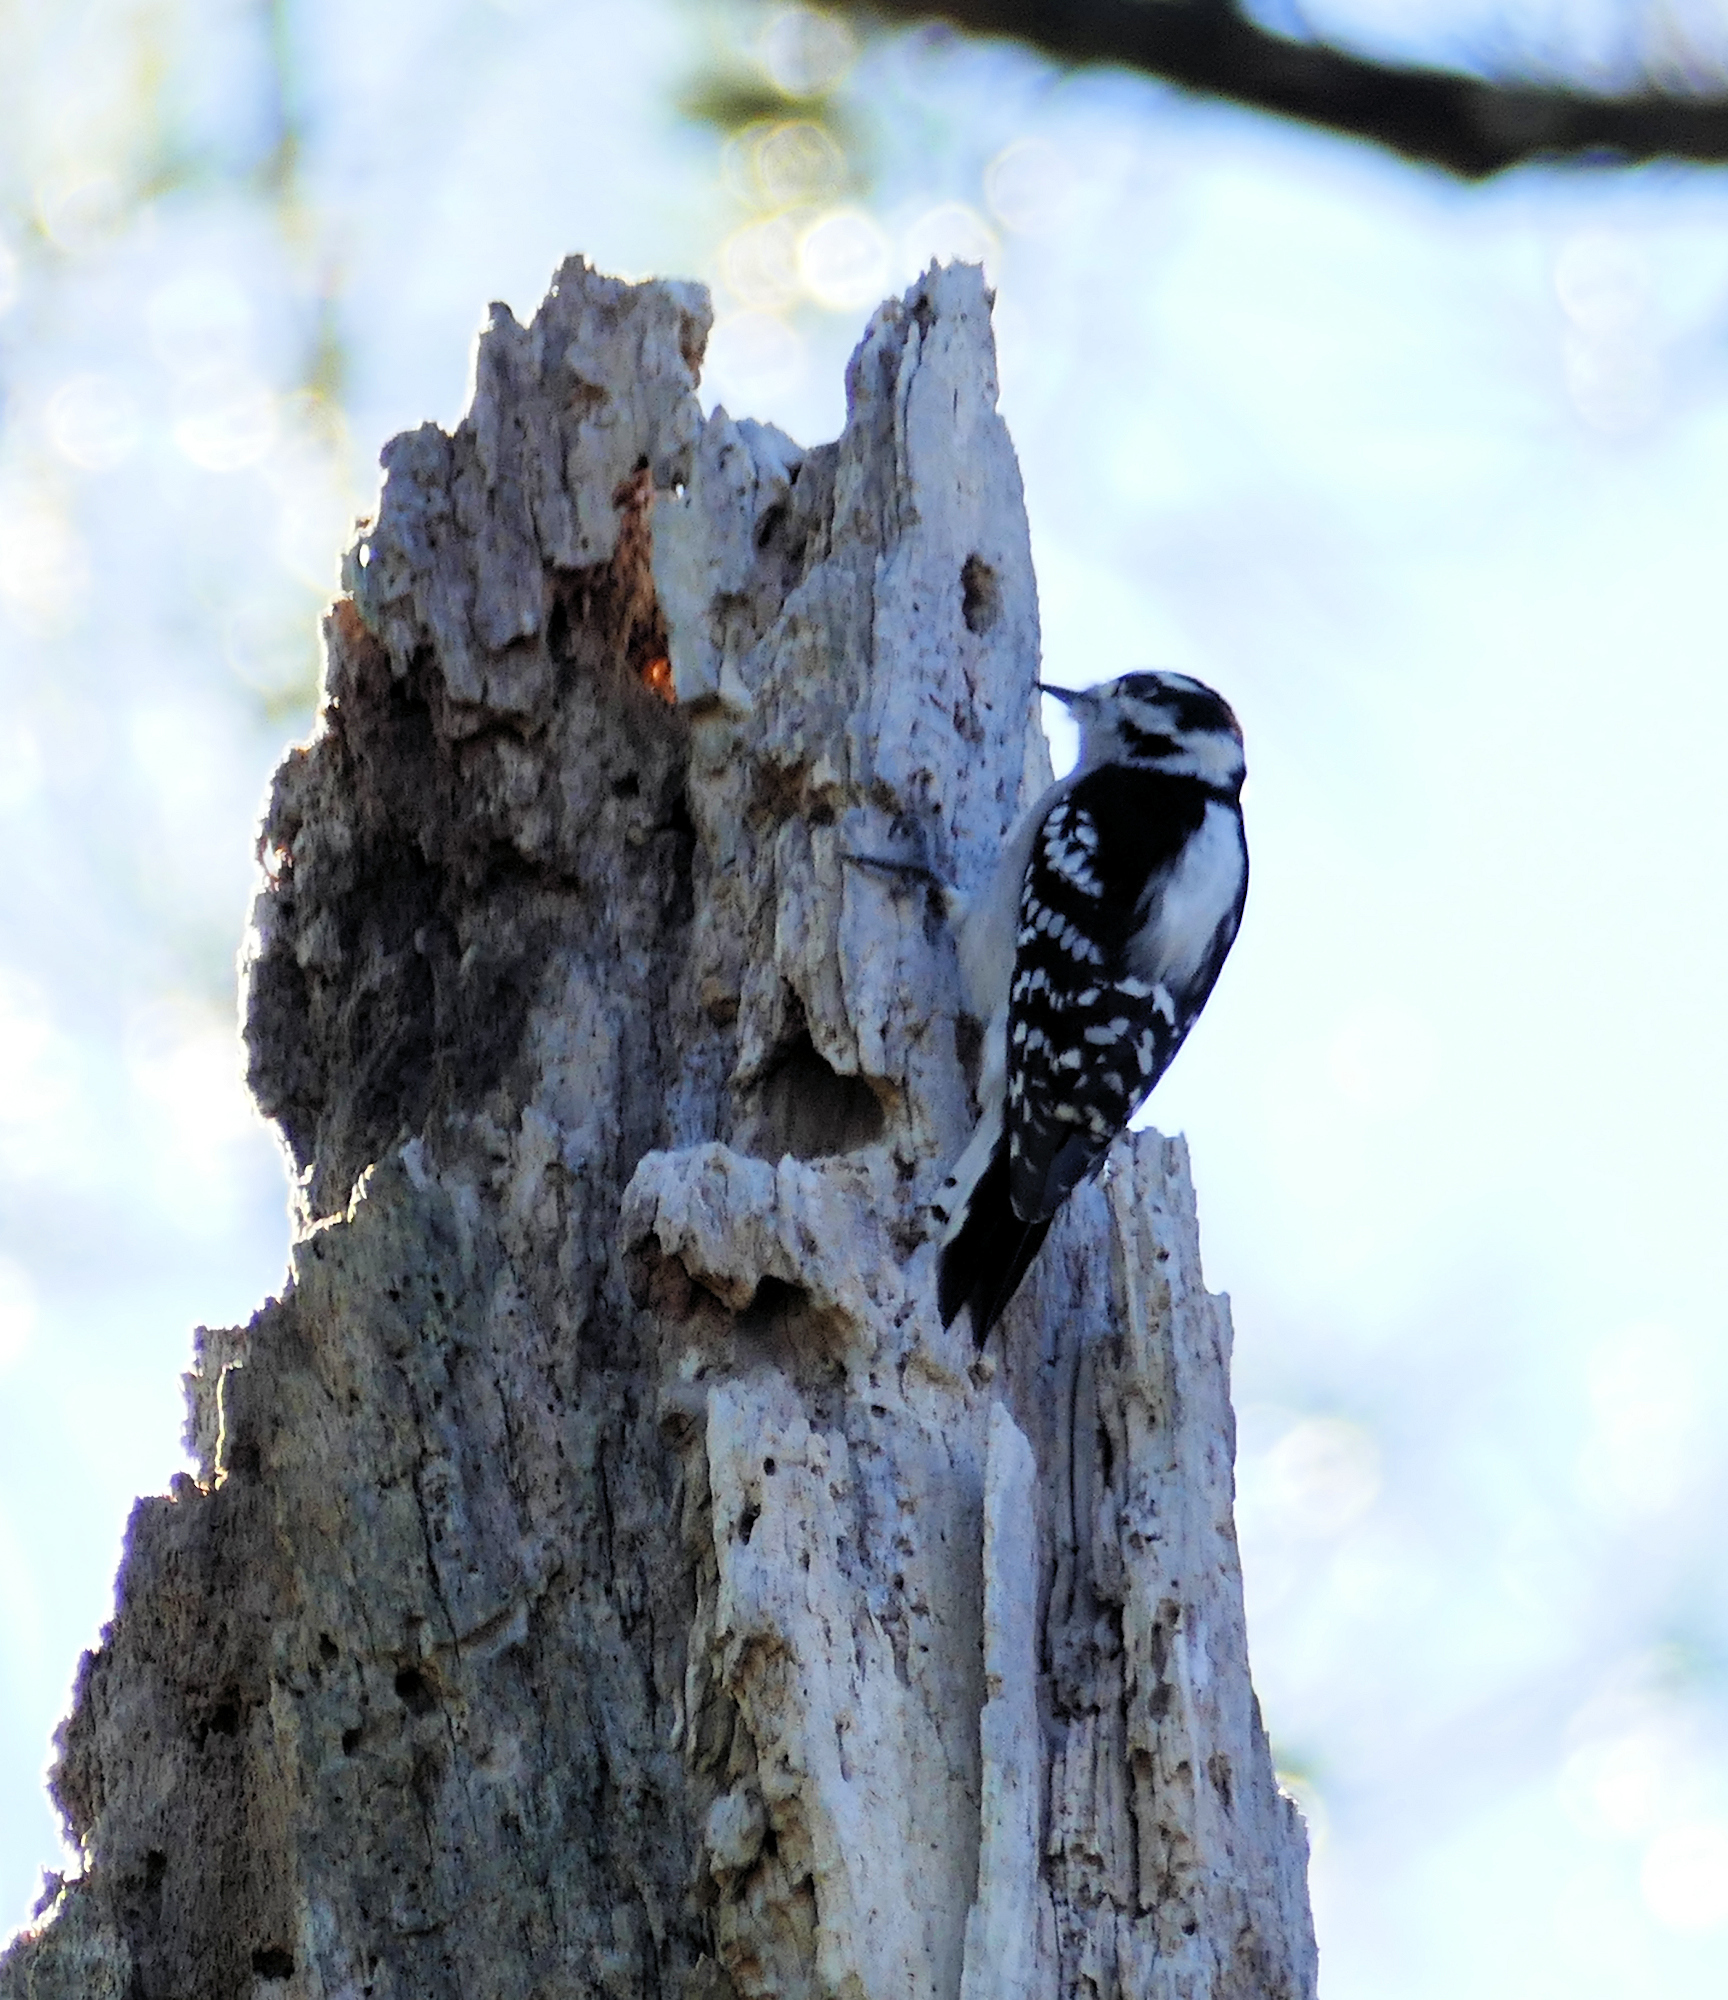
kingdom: Animalia
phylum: Chordata
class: Aves
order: Piciformes
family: Picidae
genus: Dryobates
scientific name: Dryobates pubescens
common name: Downy woodpecker
